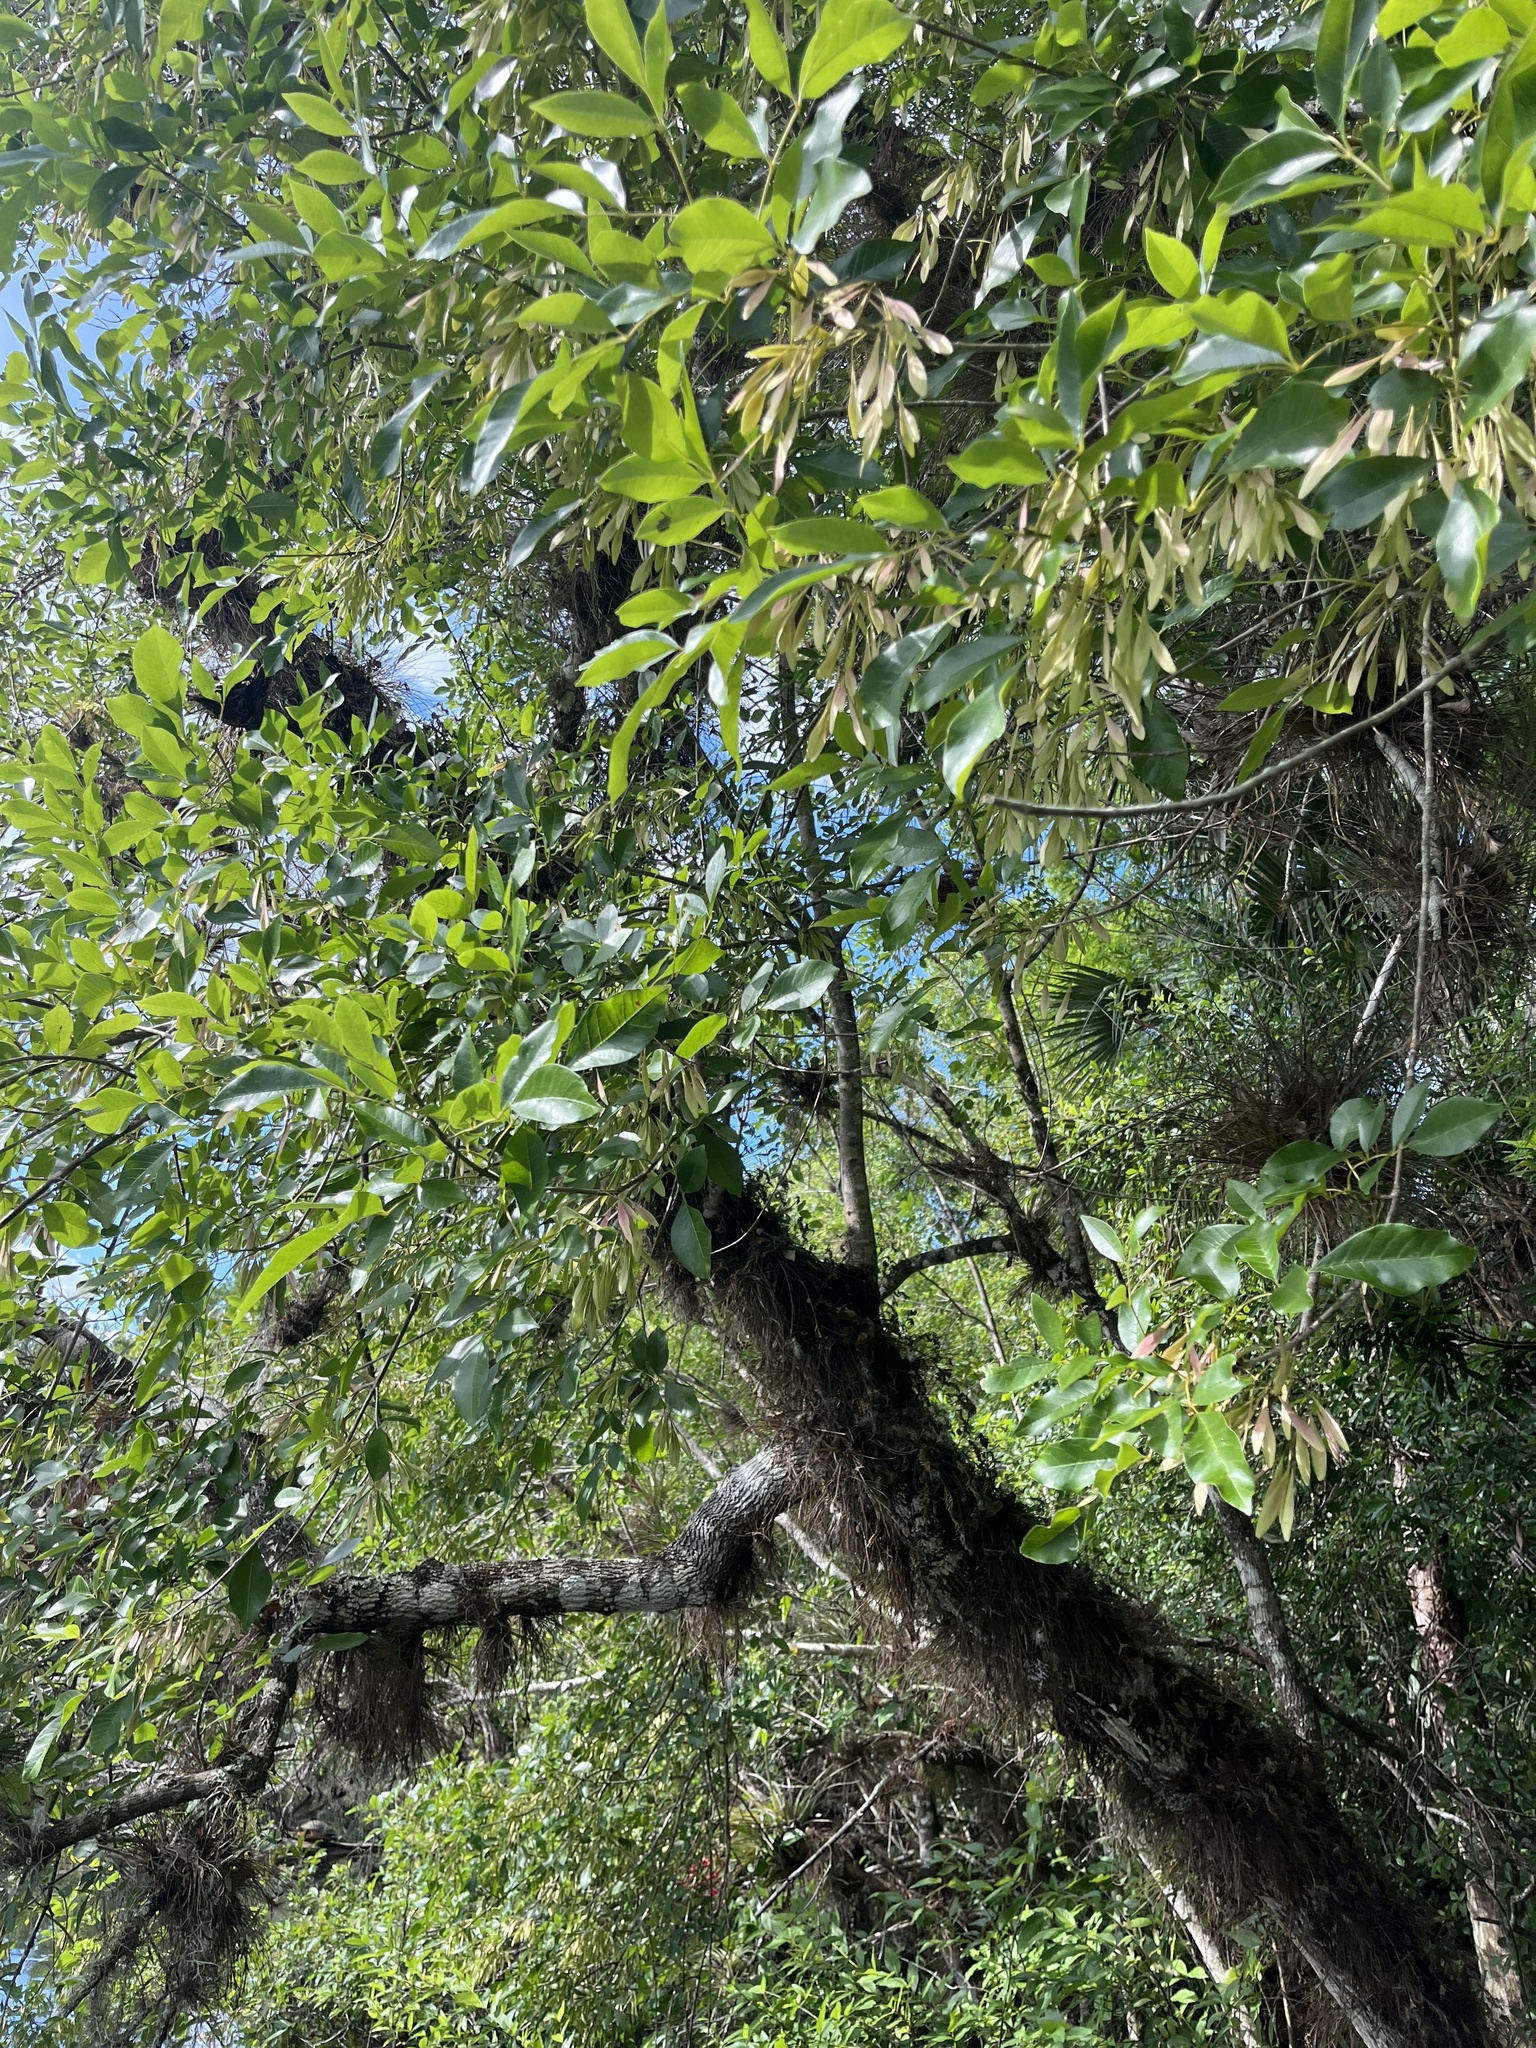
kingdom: Plantae
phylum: Tracheophyta
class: Magnoliopsida
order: Lamiales
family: Oleaceae
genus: Fraxinus
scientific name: Fraxinus caroliniana
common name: Carolina ash
